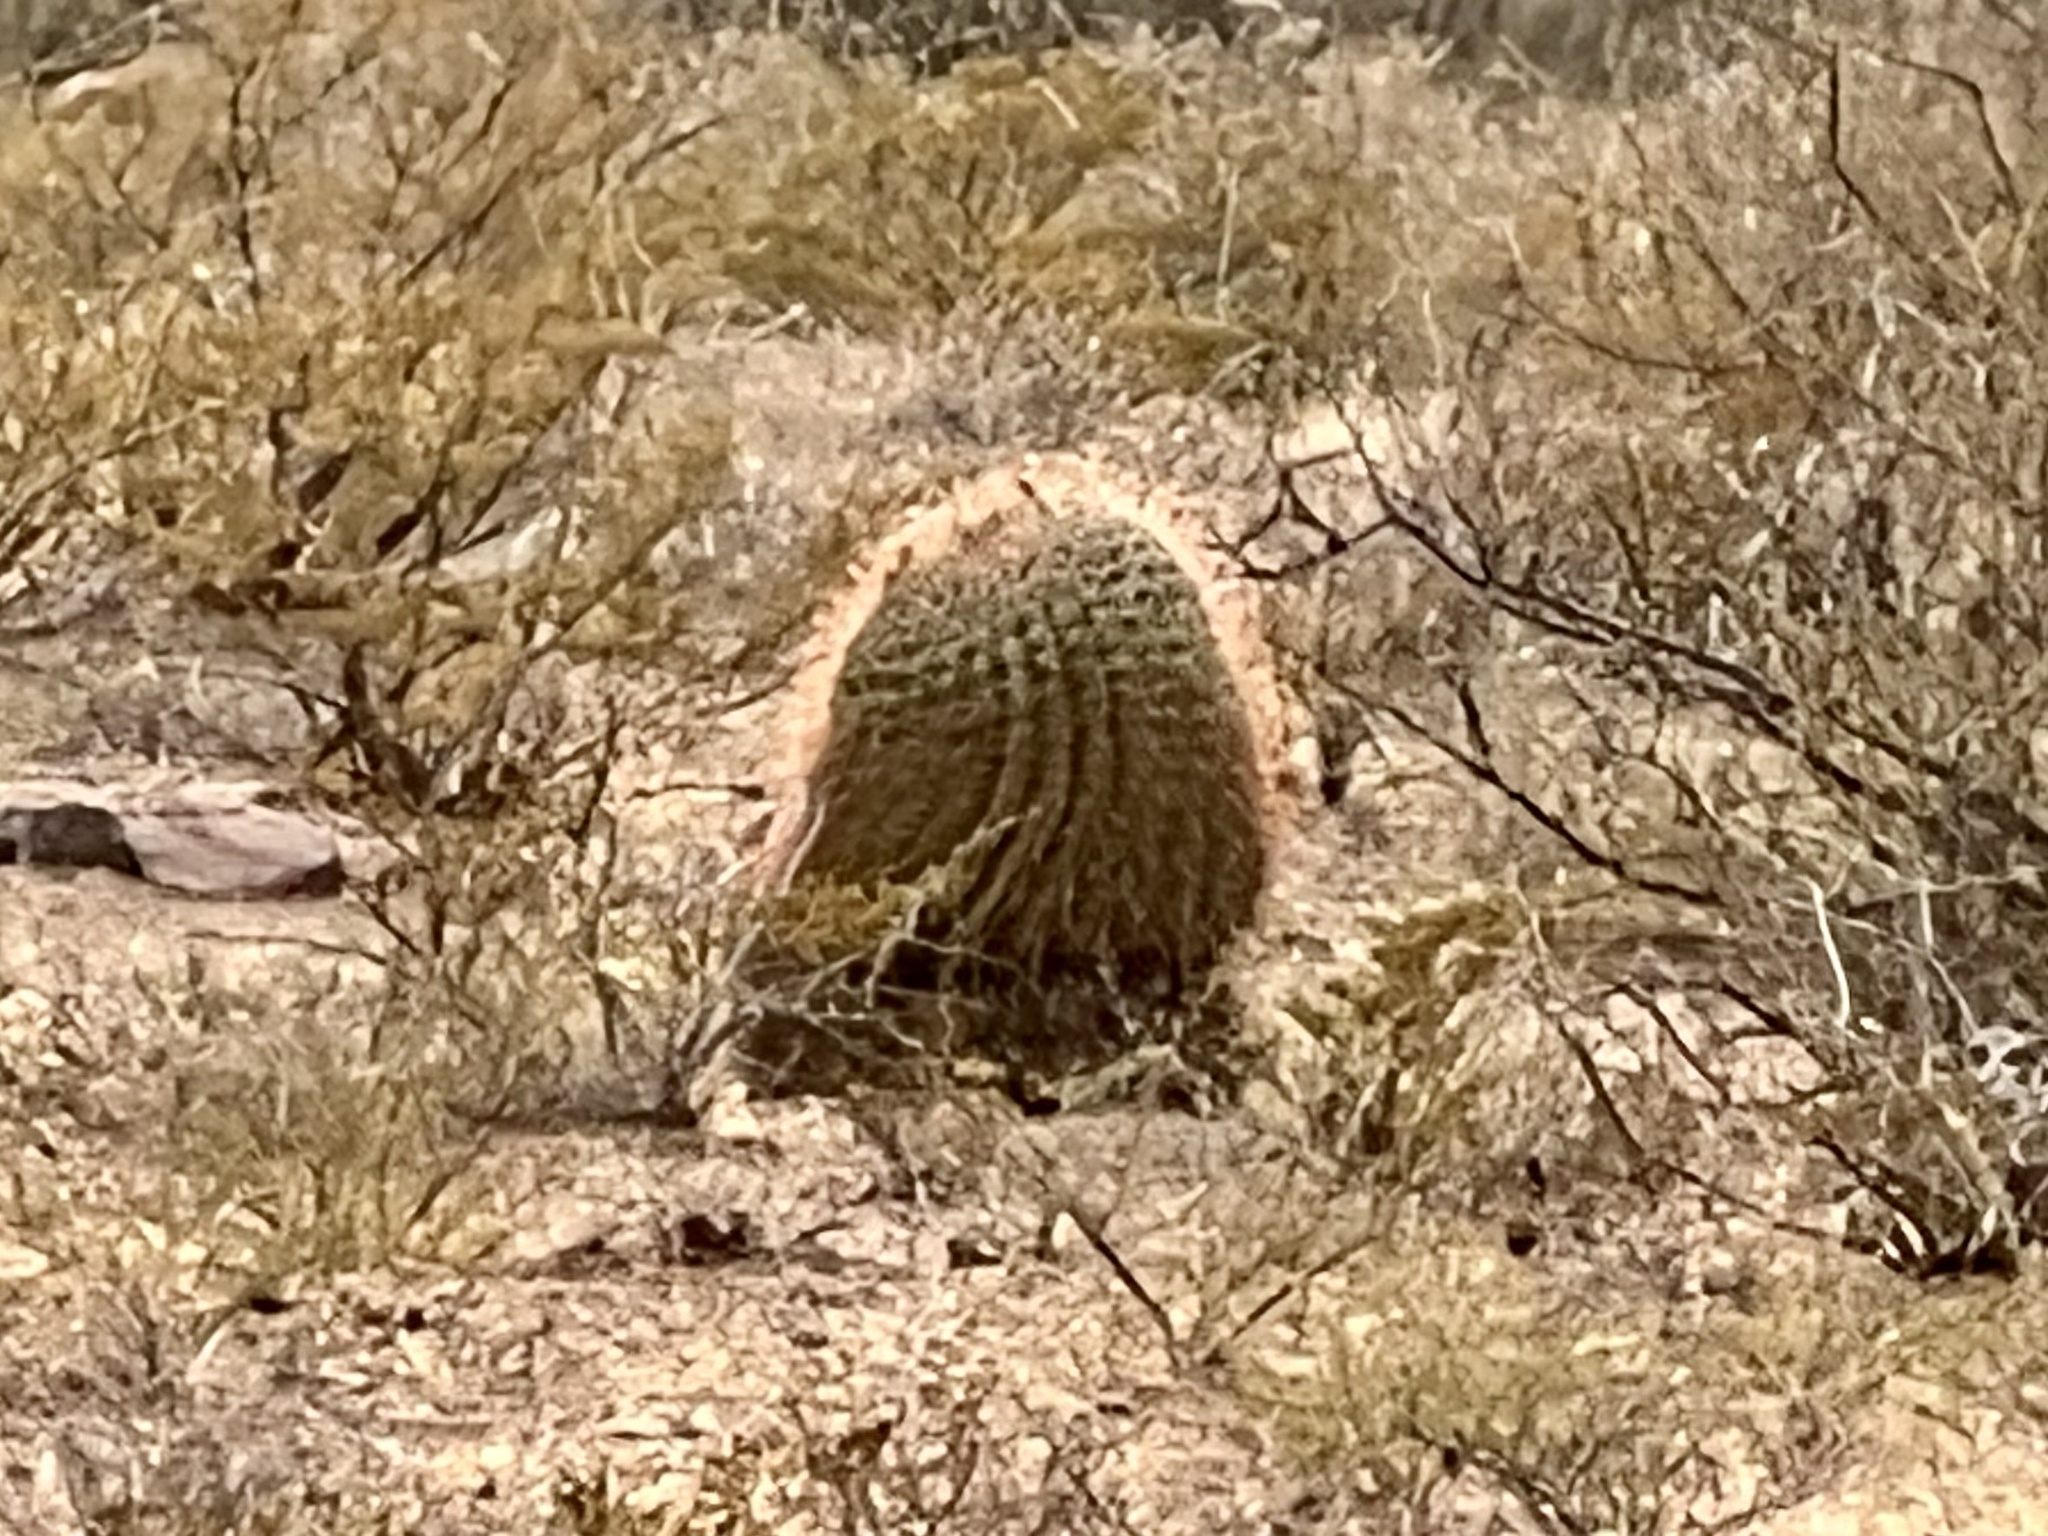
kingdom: Plantae
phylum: Tracheophyta
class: Magnoliopsida
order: Caryophyllales
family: Cactaceae
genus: Ferocactus
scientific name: Ferocactus wislizeni
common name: Candy barrel cactus
